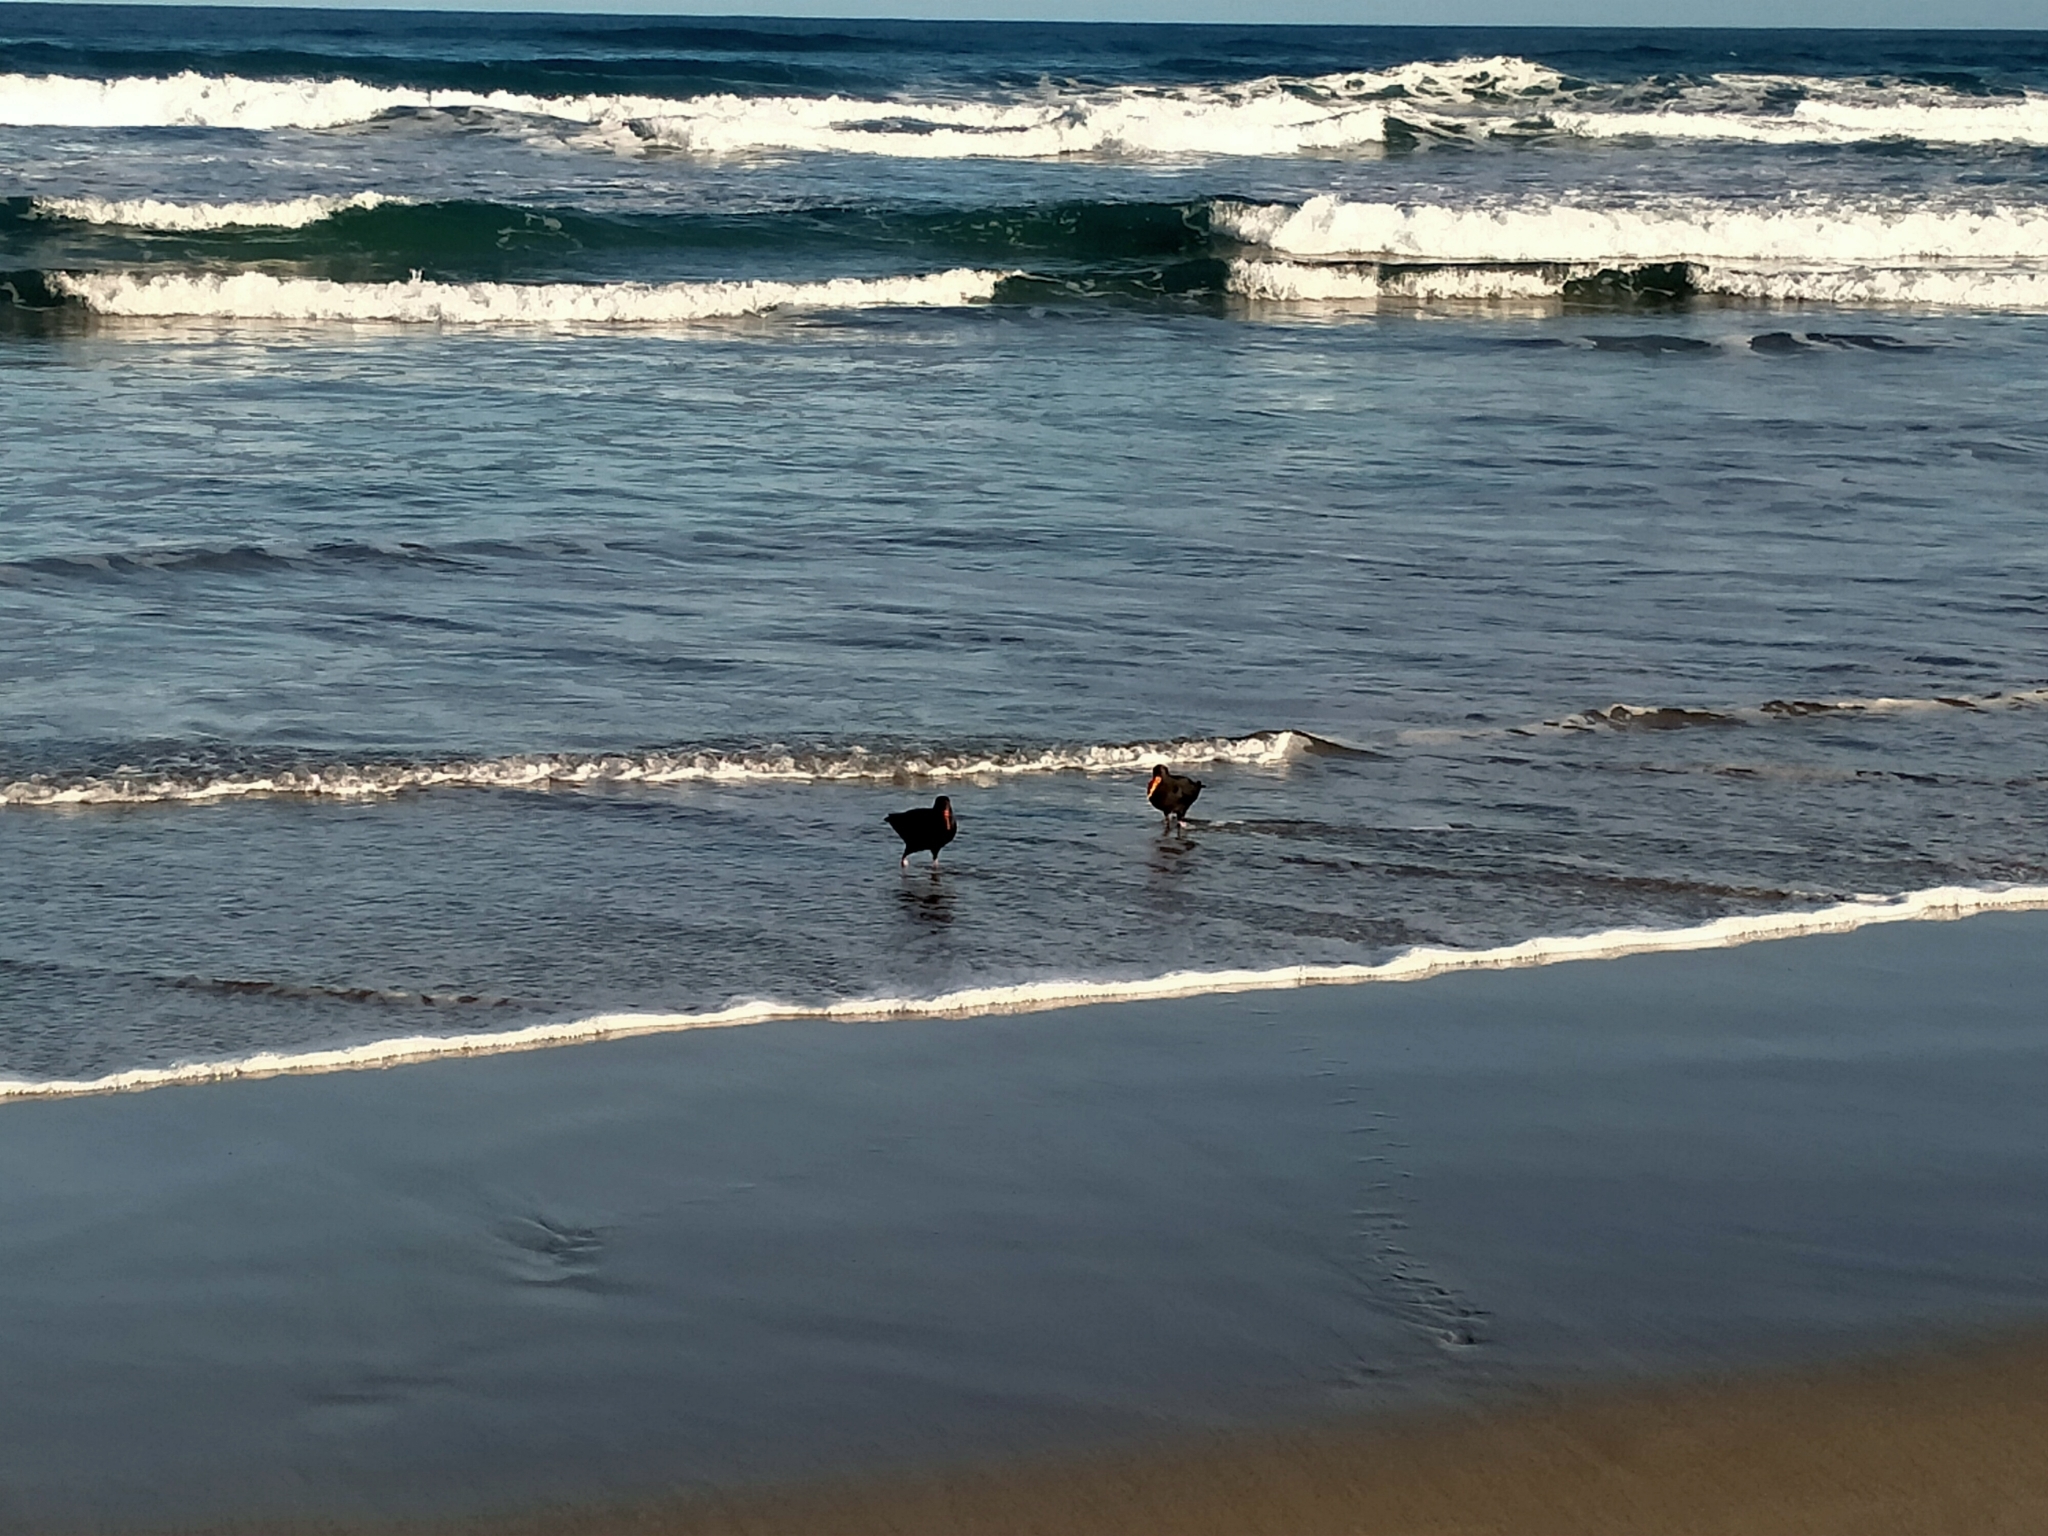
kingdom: Animalia
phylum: Chordata
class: Aves
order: Charadriiformes
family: Haematopodidae
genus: Haematopus
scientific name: Haematopus unicolor
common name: Variable oystercatcher
